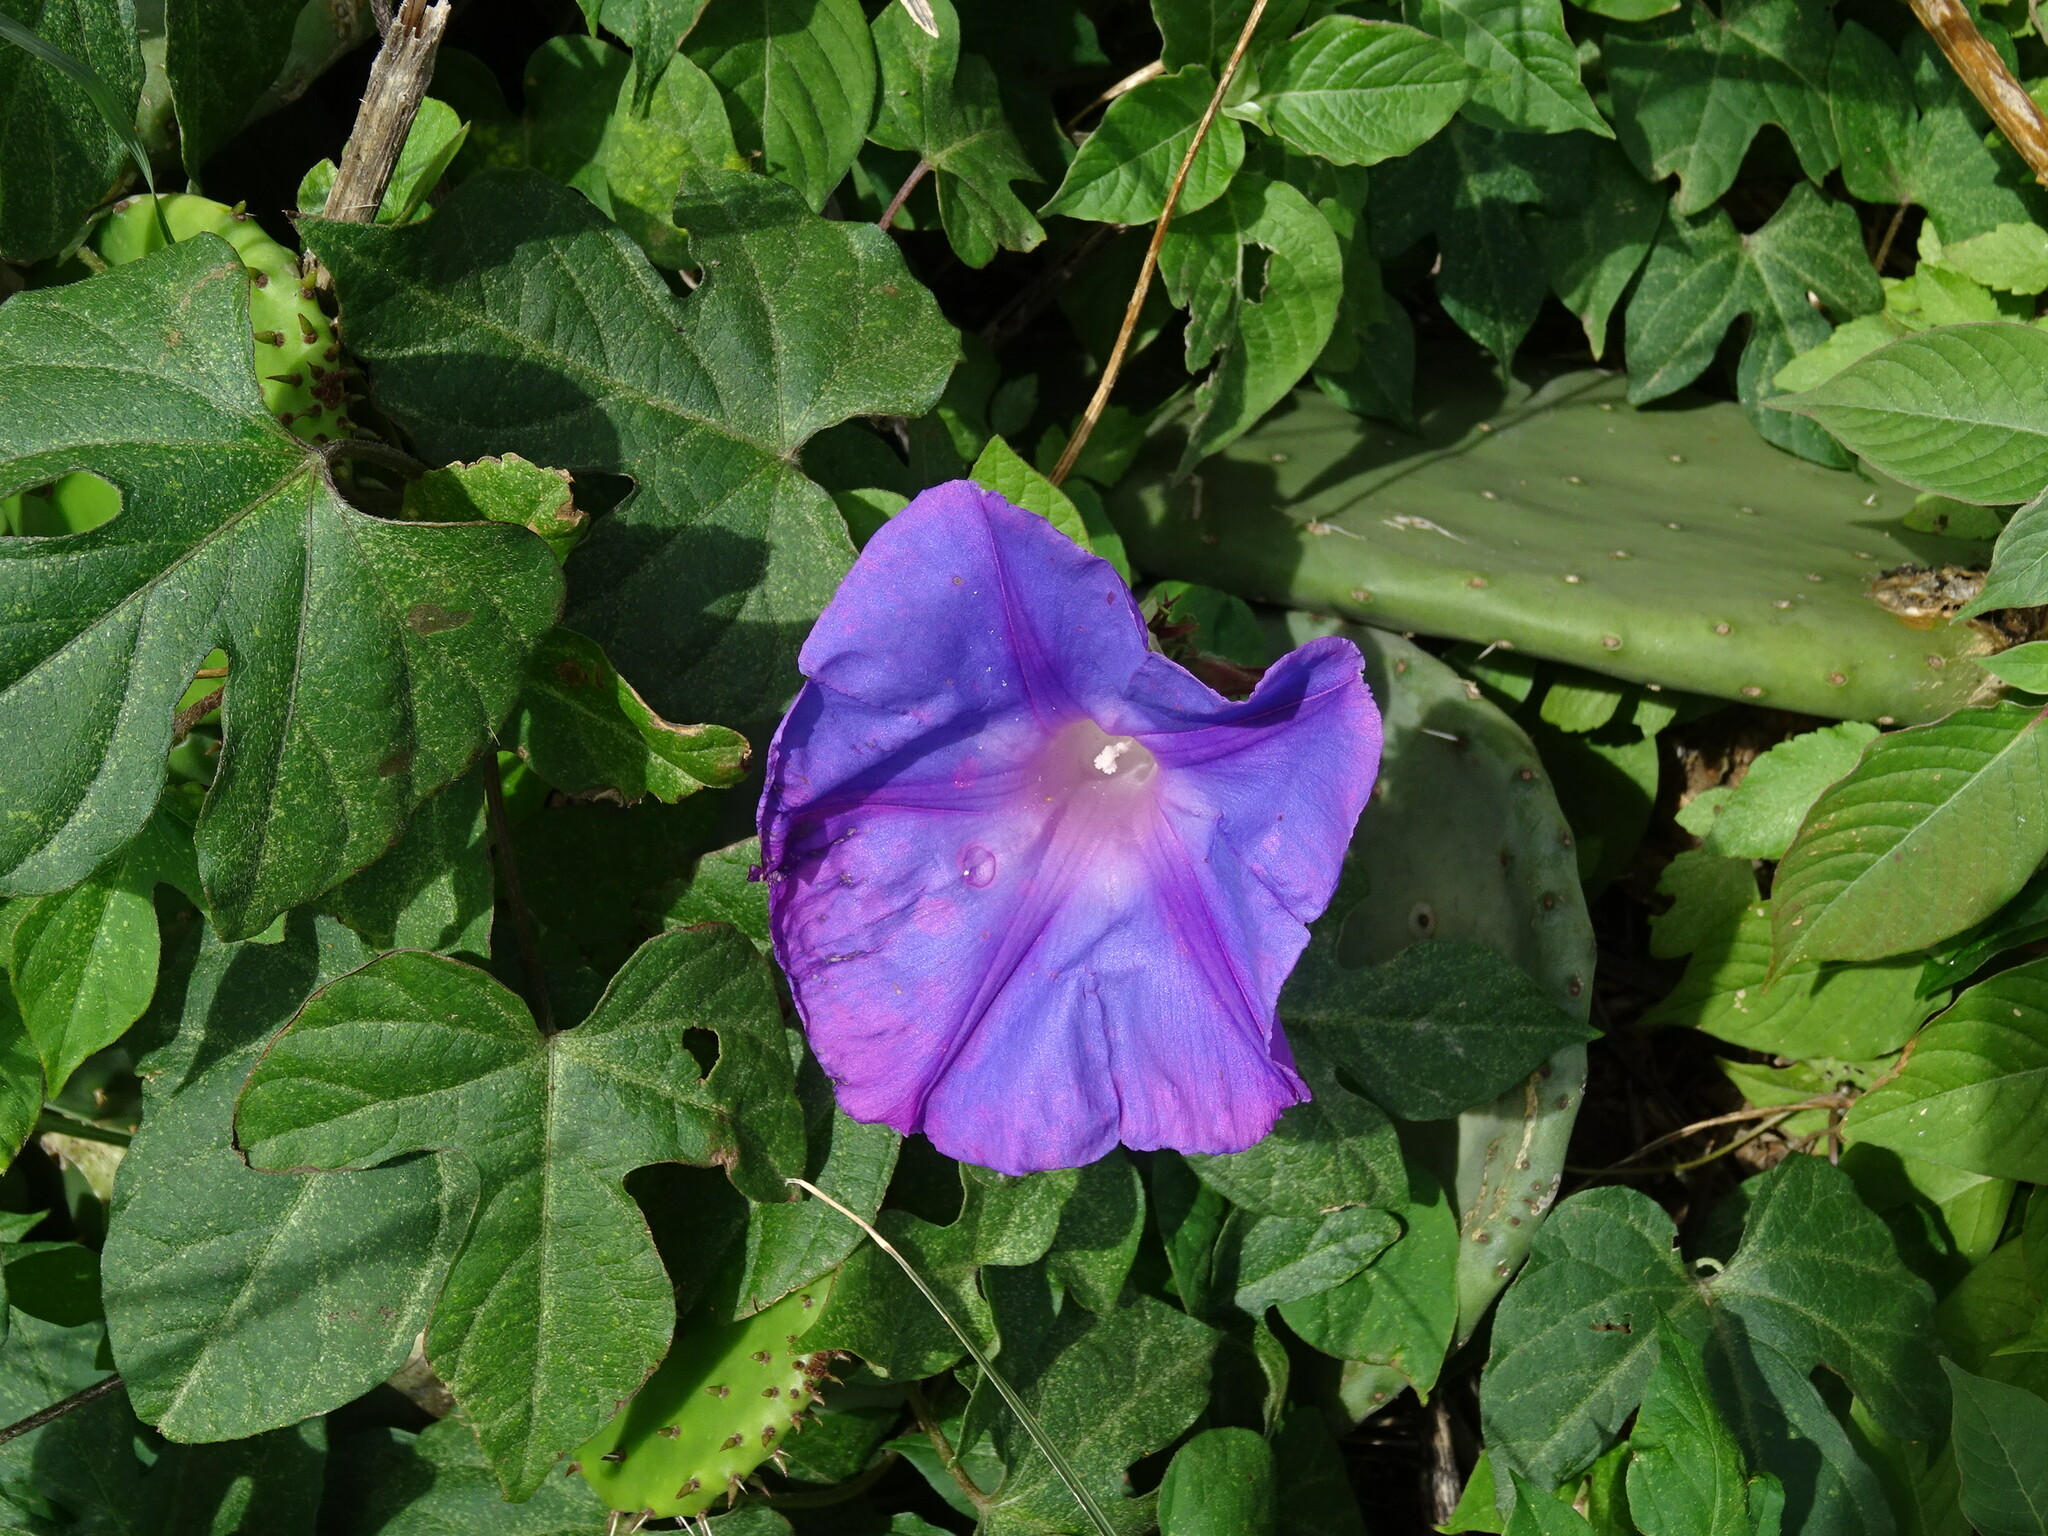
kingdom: Plantae
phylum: Tracheophyta
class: Magnoliopsida
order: Solanales
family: Convolvulaceae
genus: Ipomoea
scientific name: Ipomoea indica
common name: Blue dawnflower
